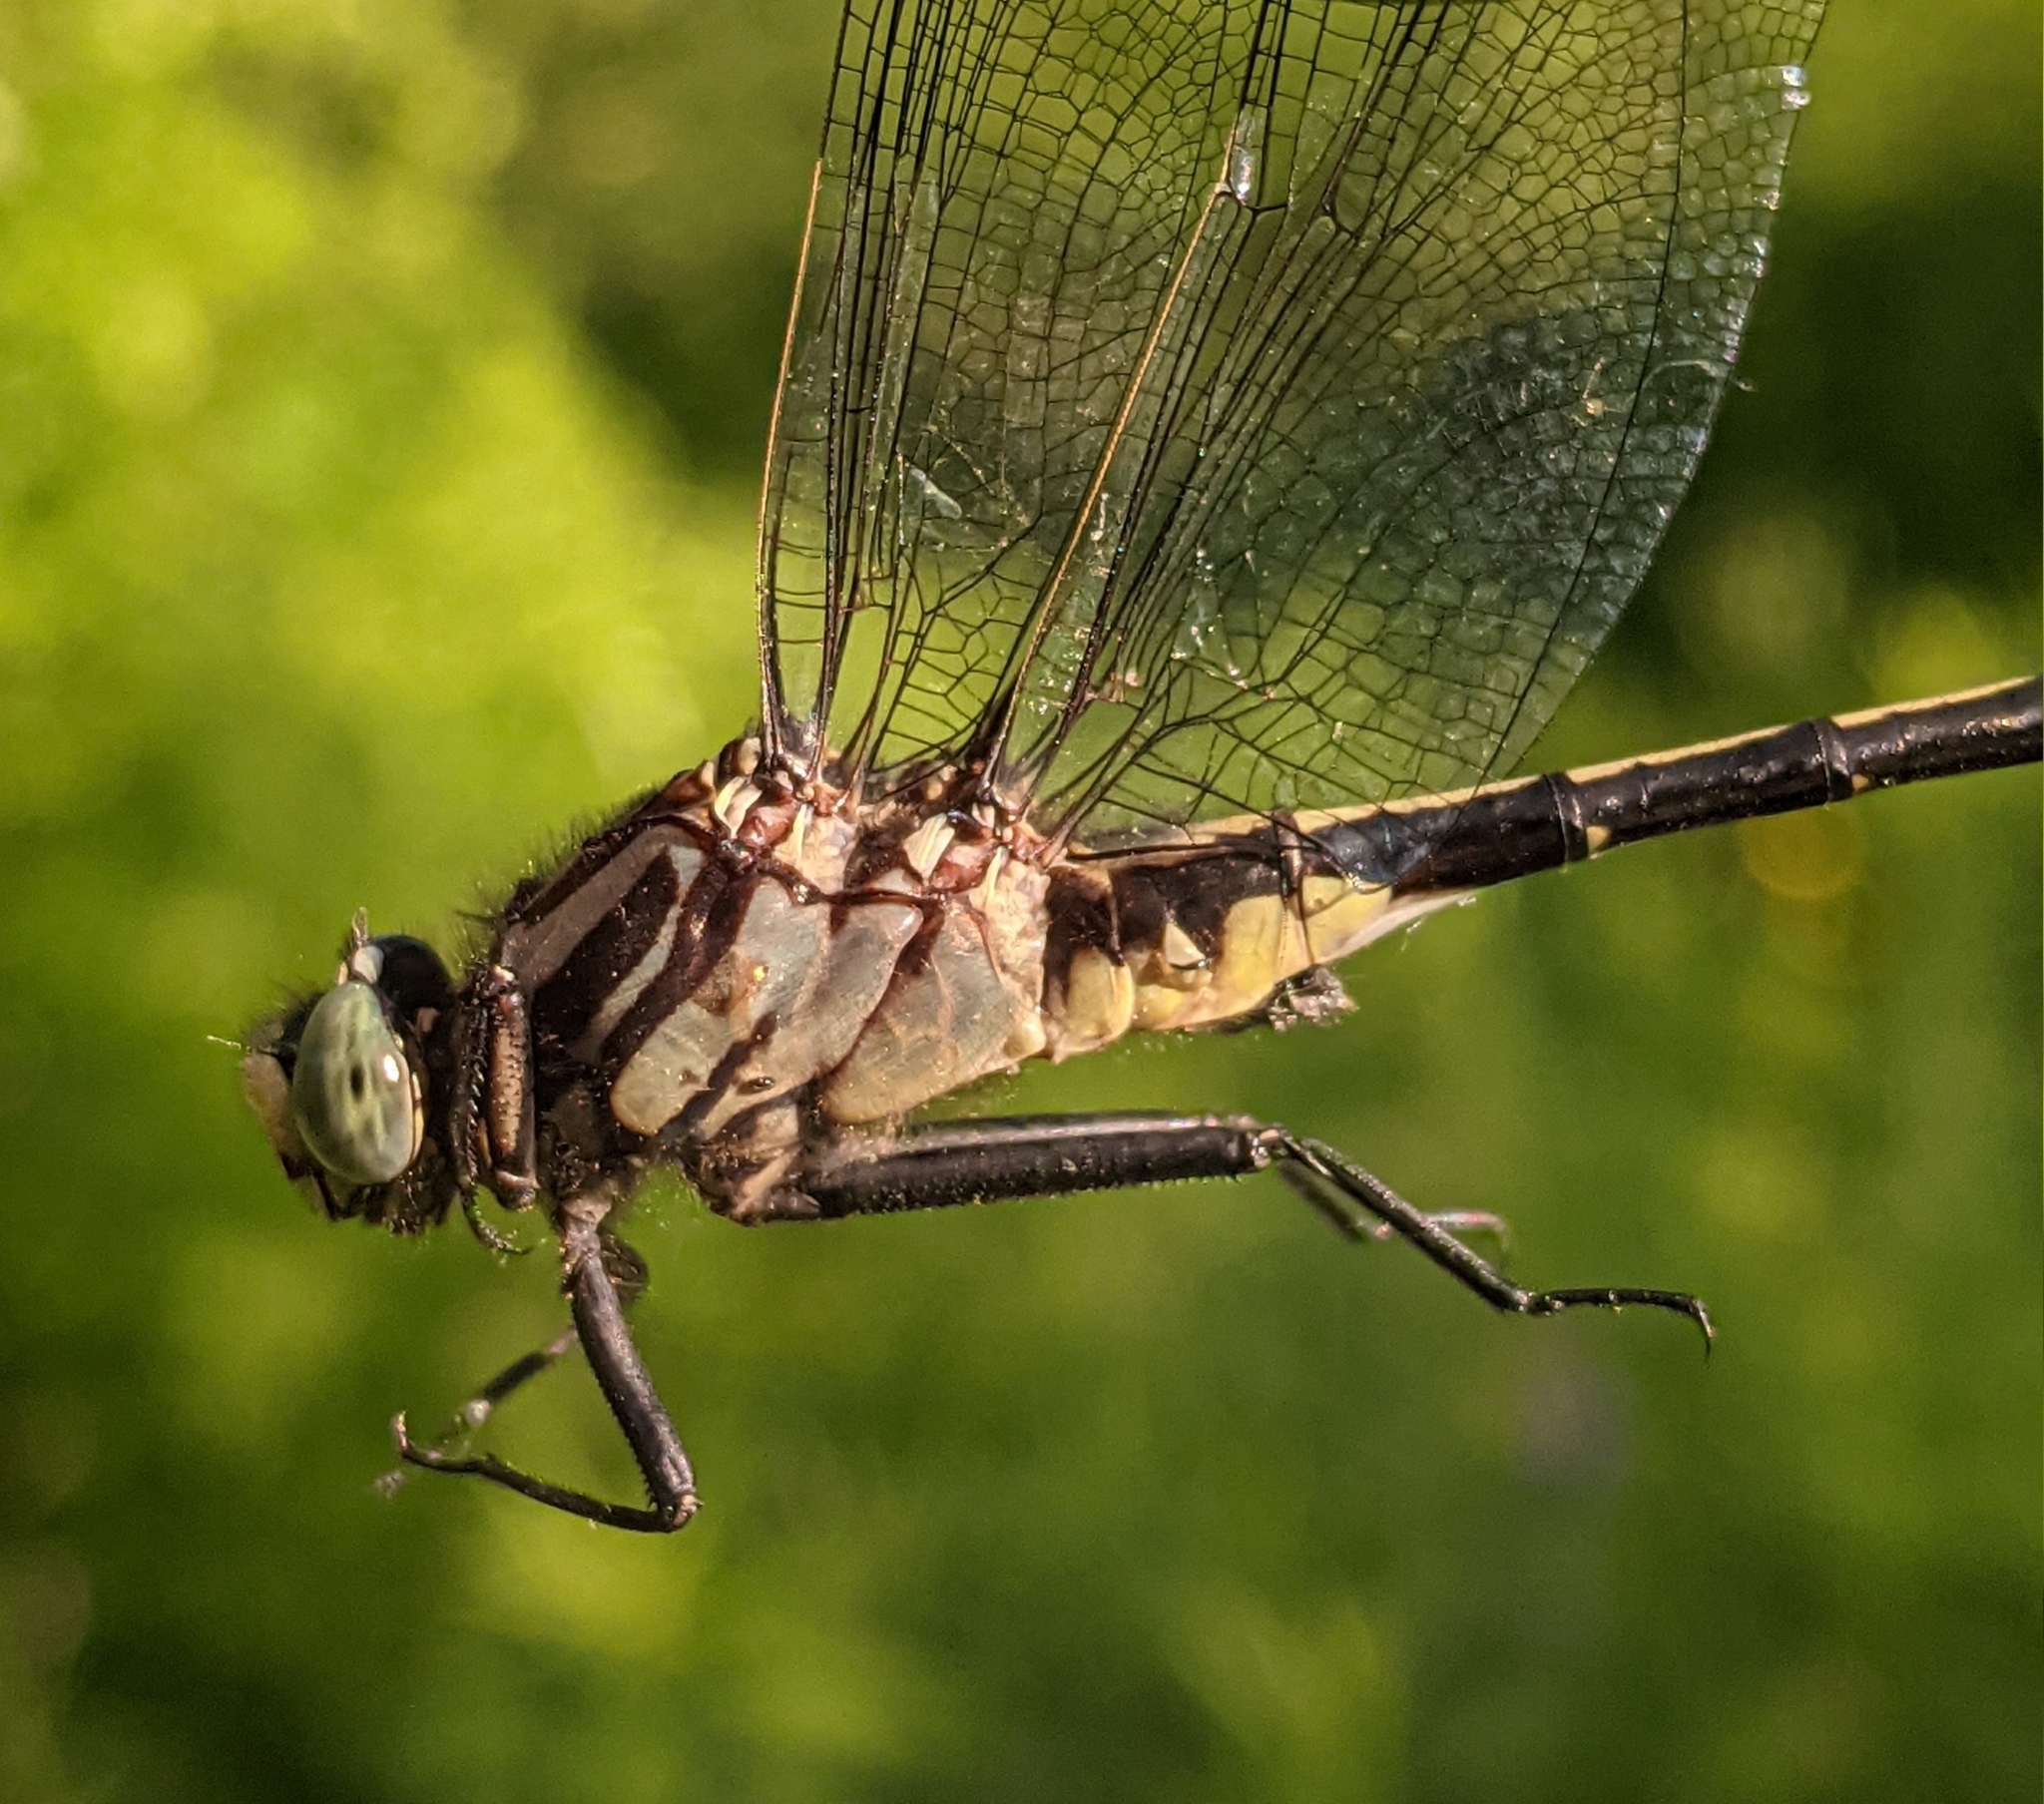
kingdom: Animalia
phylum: Arthropoda
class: Insecta
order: Odonata
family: Gomphidae
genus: Gomphurus
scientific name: Gomphurus fraternus
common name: Midland clubtail
